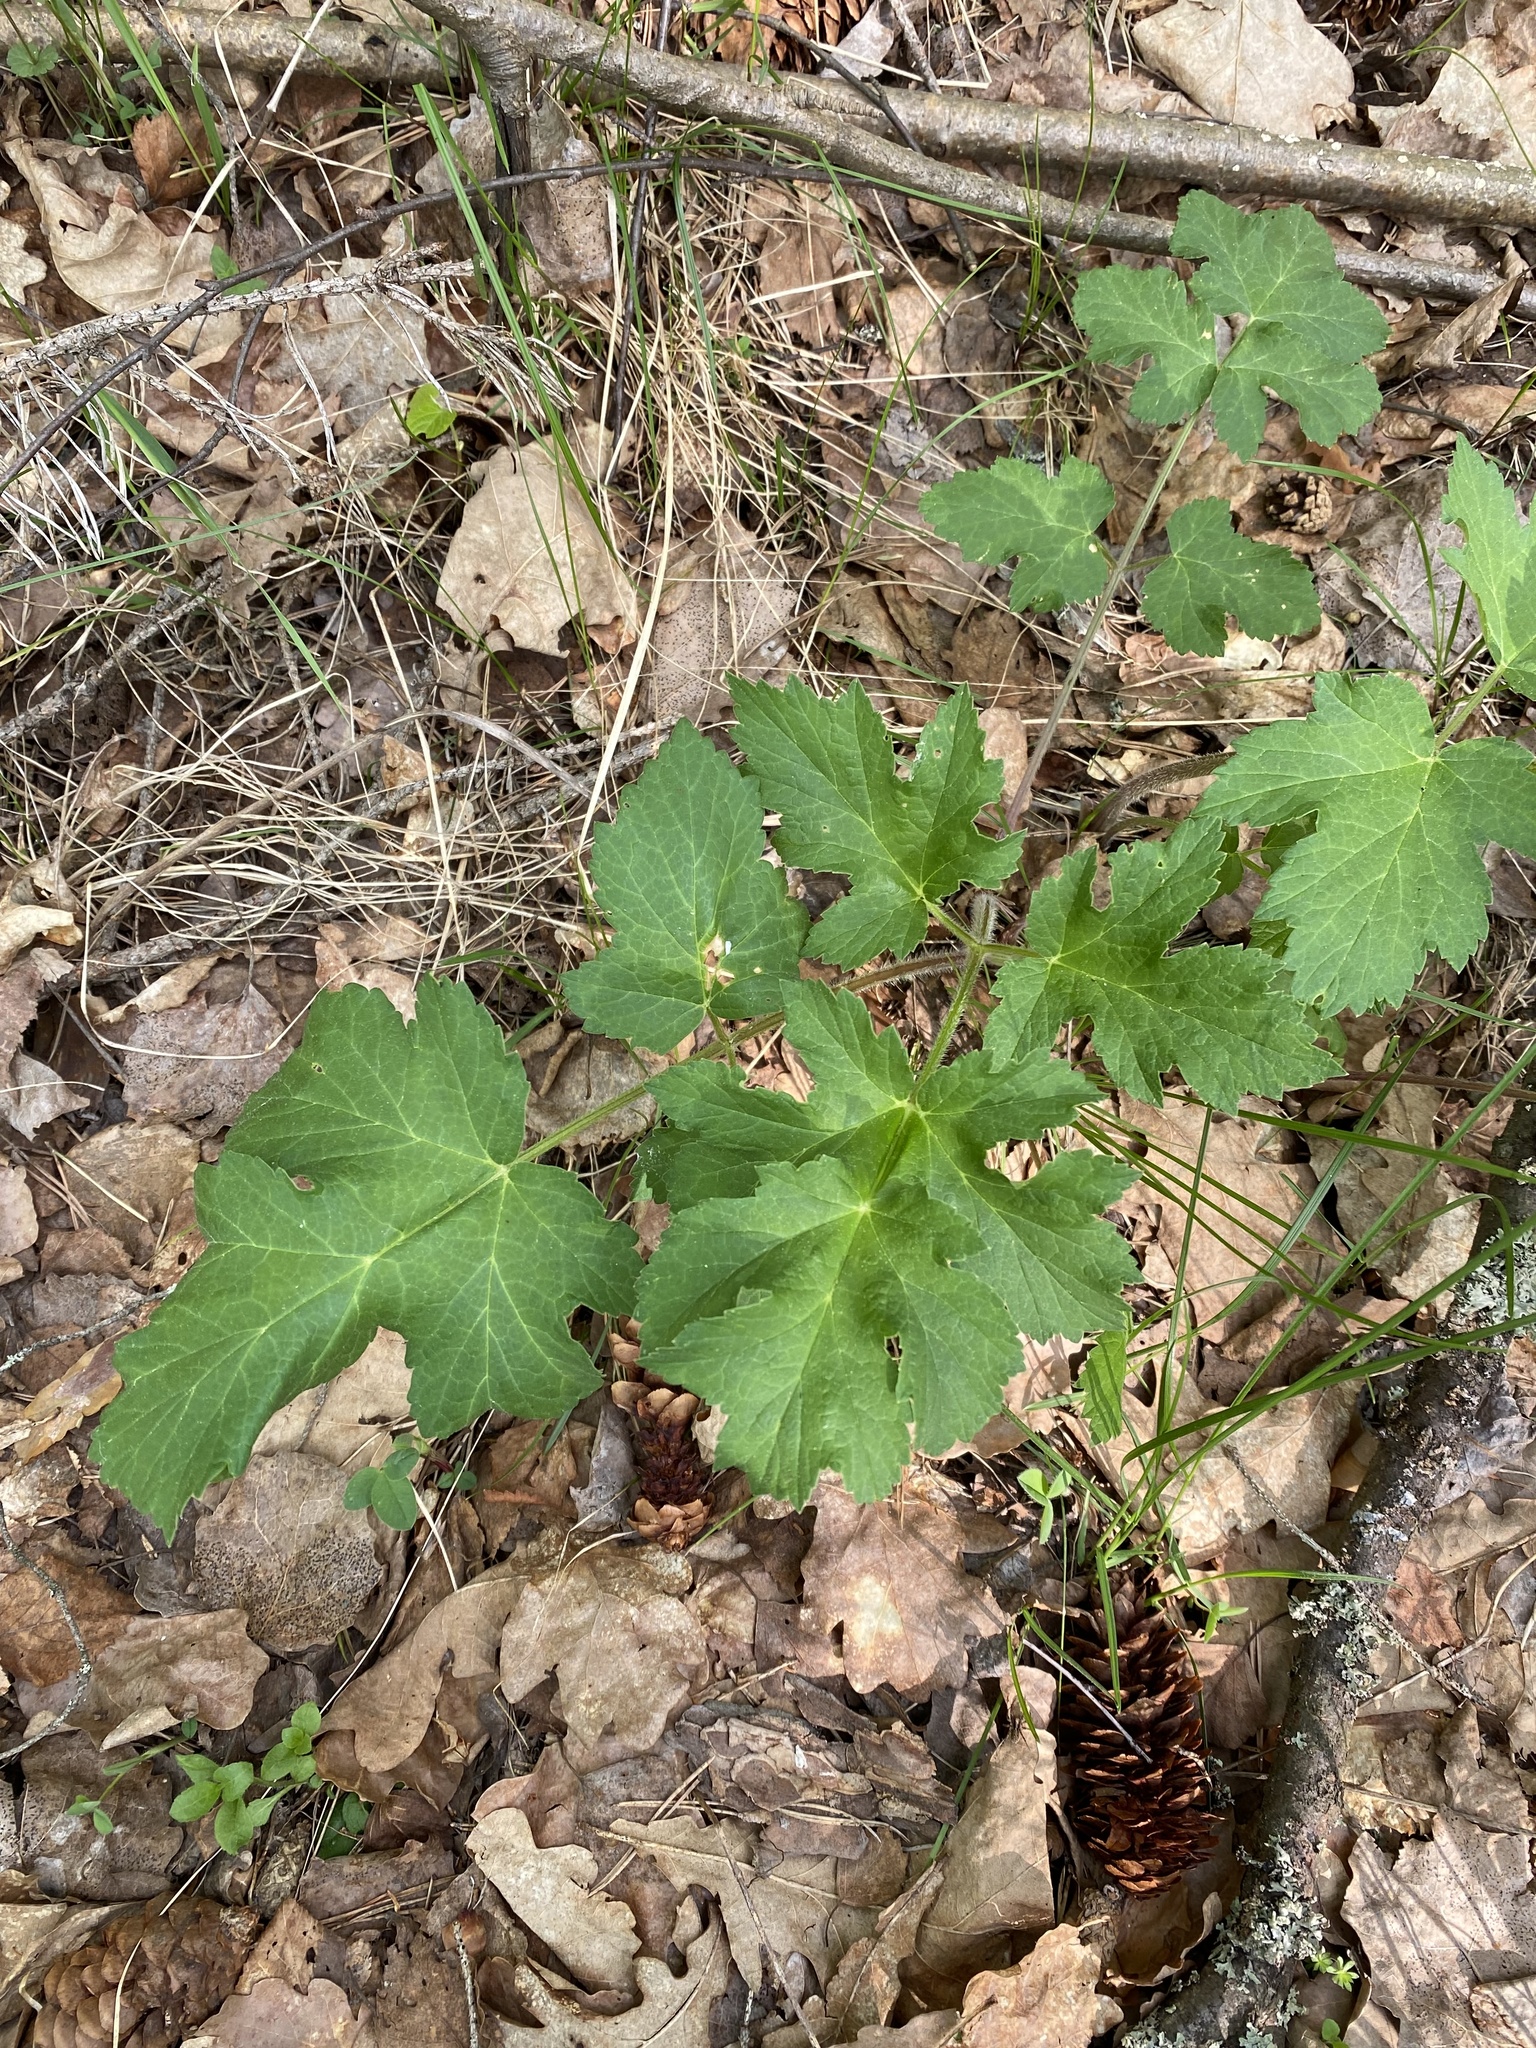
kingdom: Plantae
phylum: Tracheophyta
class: Magnoliopsida
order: Apiales
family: Apiaceae
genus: Heracleum
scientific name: Heracleum sphondylium
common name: Hogweed
